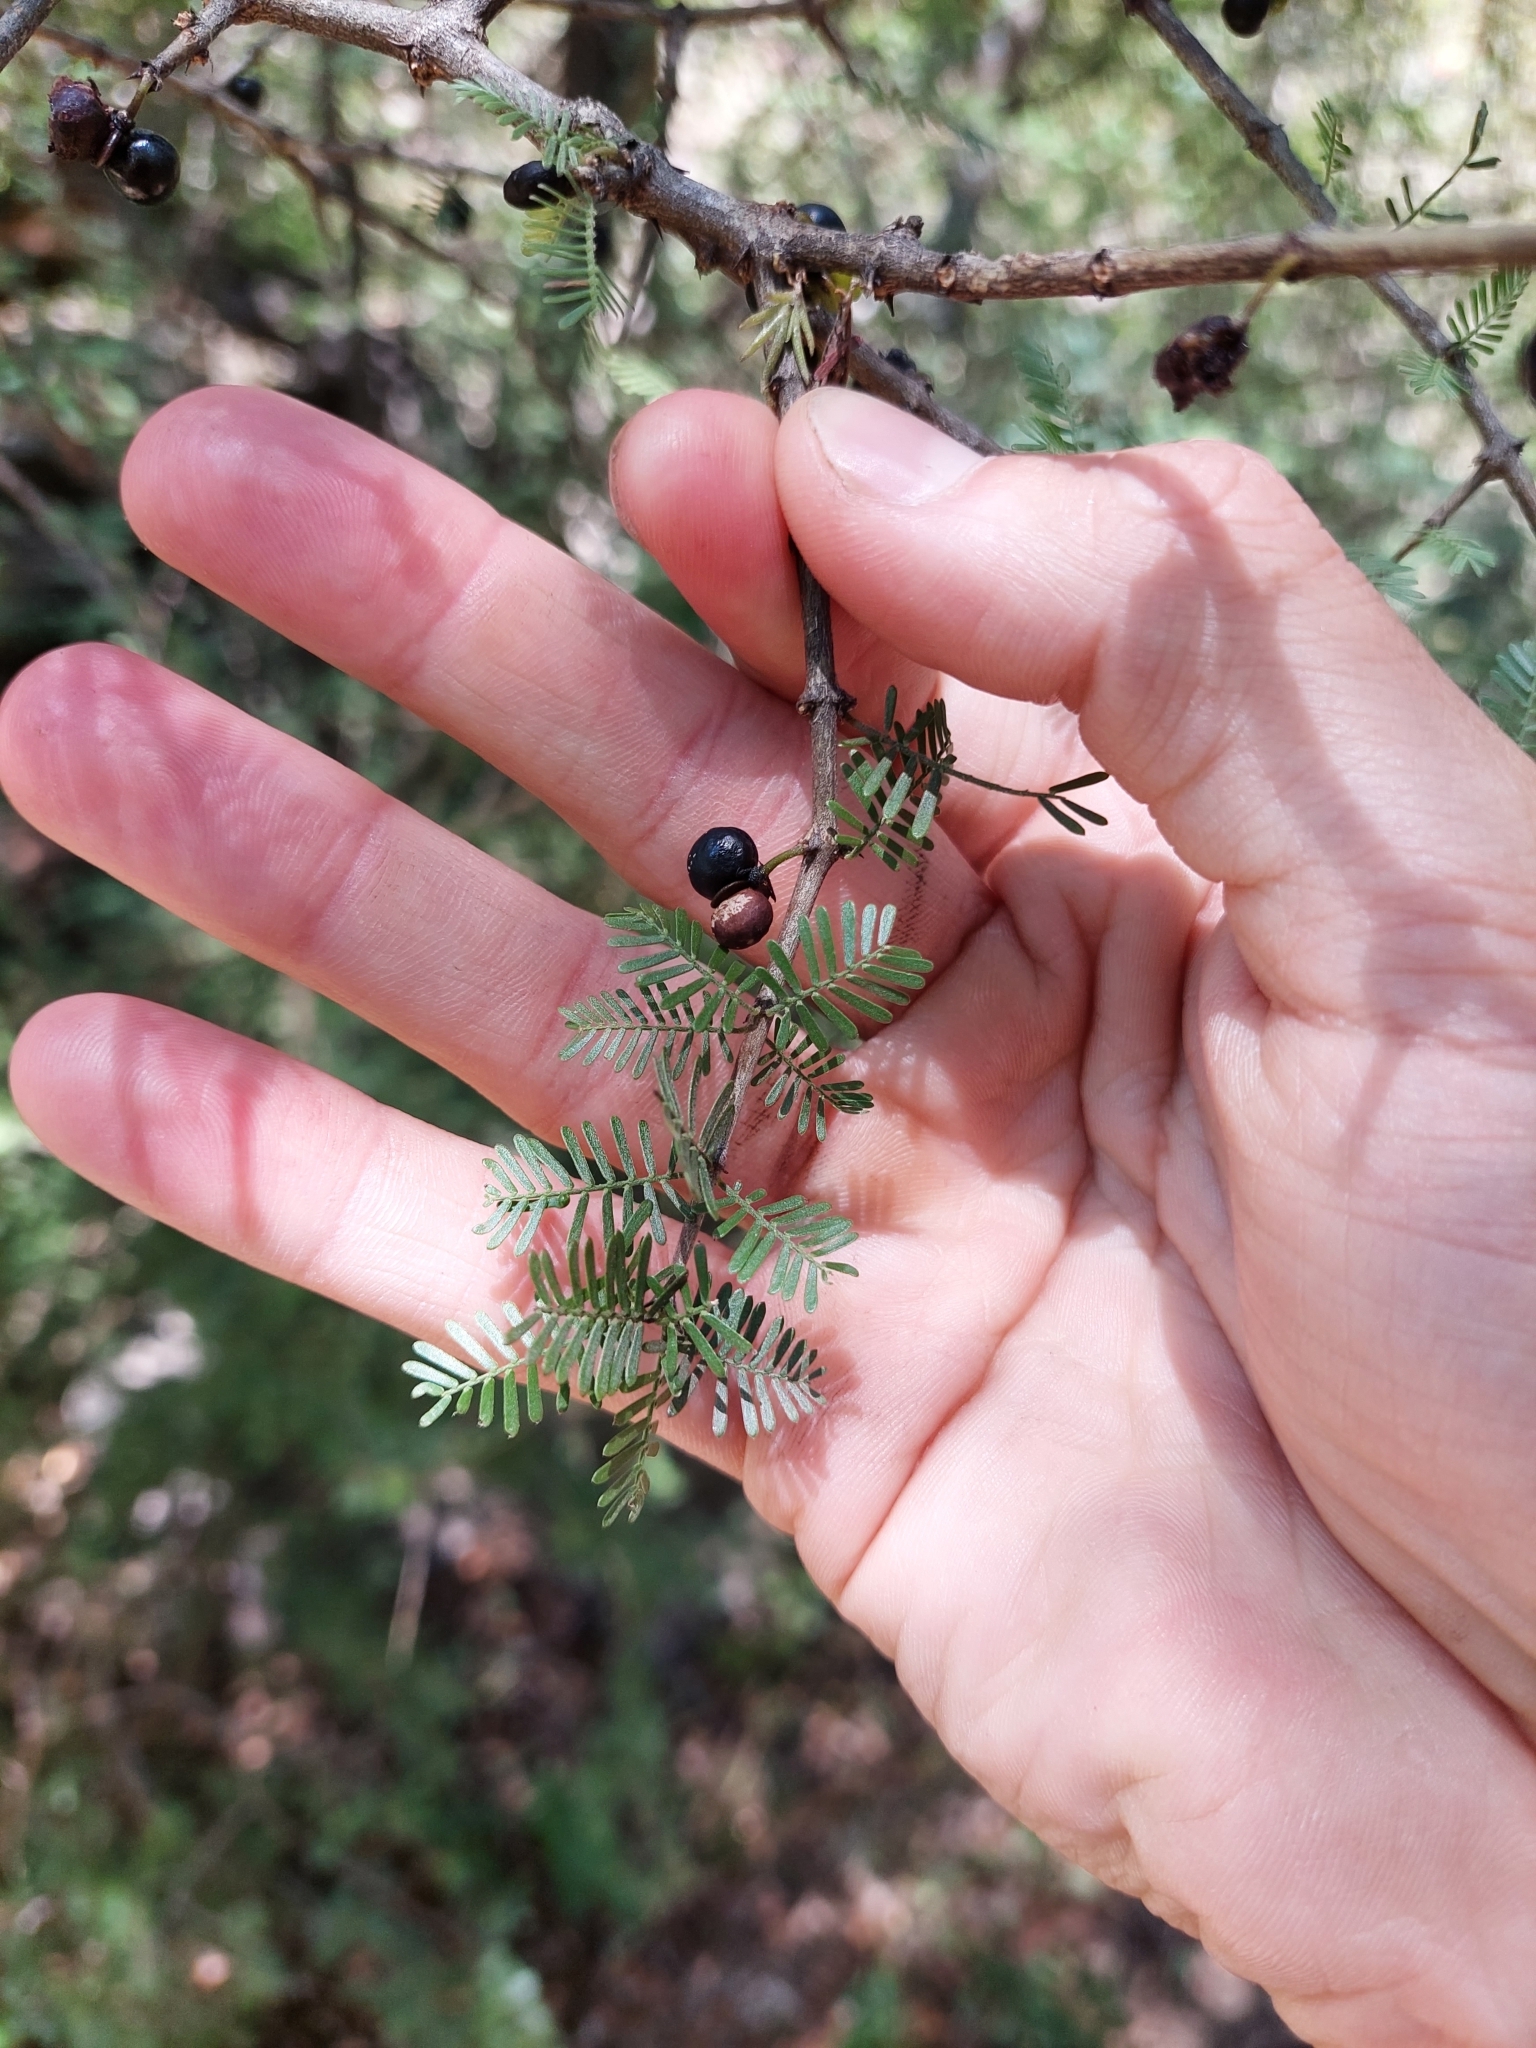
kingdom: Plantae
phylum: Tracheophyta
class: Magnoliopsida
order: Zygophyllales
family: Zygophyllaceae
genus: Porlieria
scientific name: Porlieria microphylla
